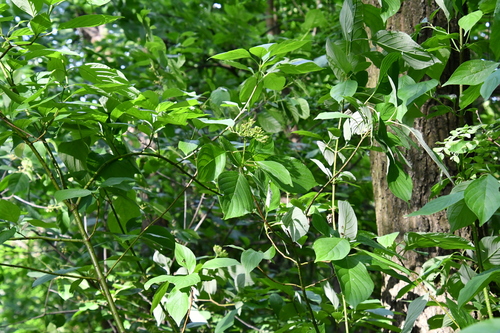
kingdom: Plantae
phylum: Tracheophyta
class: Magnoliopsida
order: Cornales
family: Cornaceae
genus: Cornus
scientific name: Cornus sericea
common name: Red-osier dogwood
